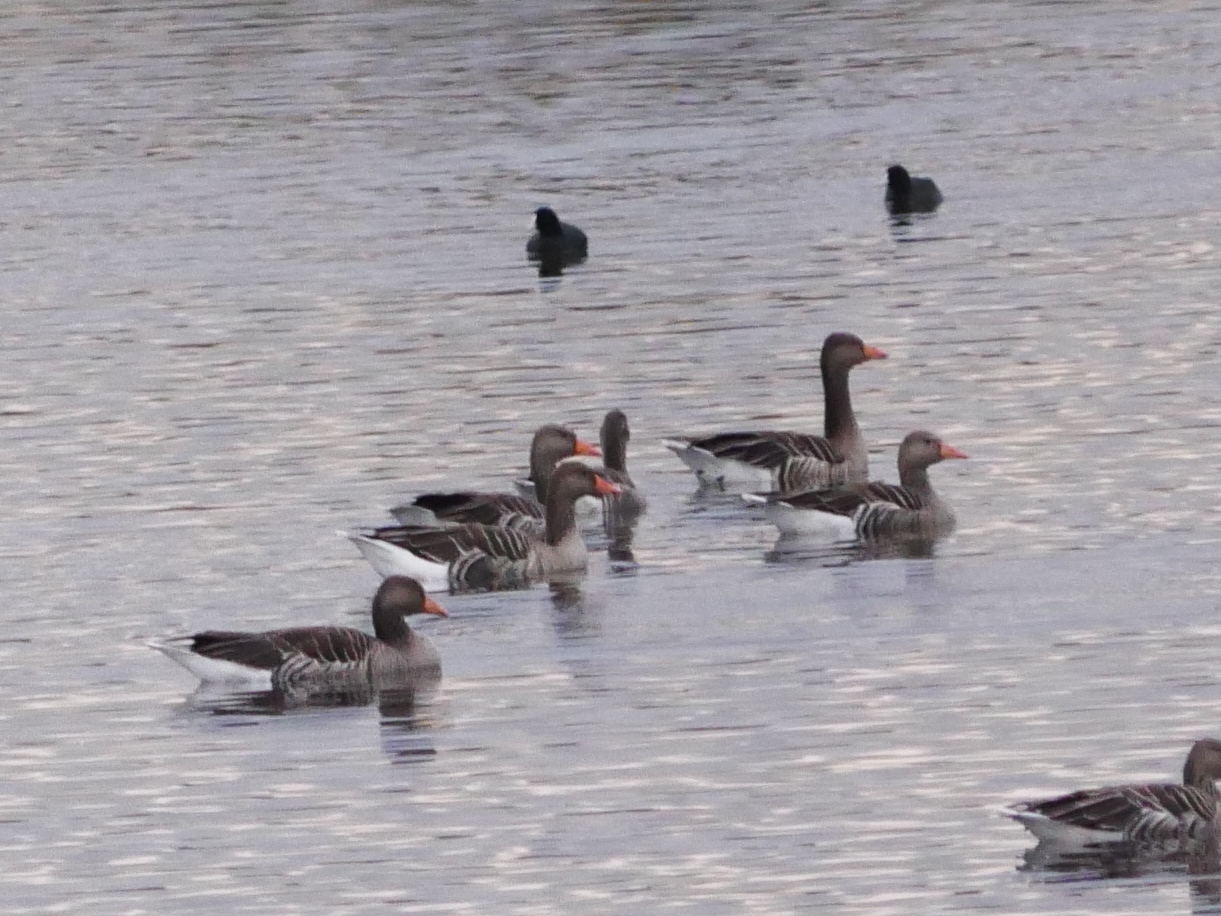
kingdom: Animalia
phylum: Chordata
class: Aves
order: Anseriformes
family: Anatidae
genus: Anser
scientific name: Anser anser
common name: Greylag goose
